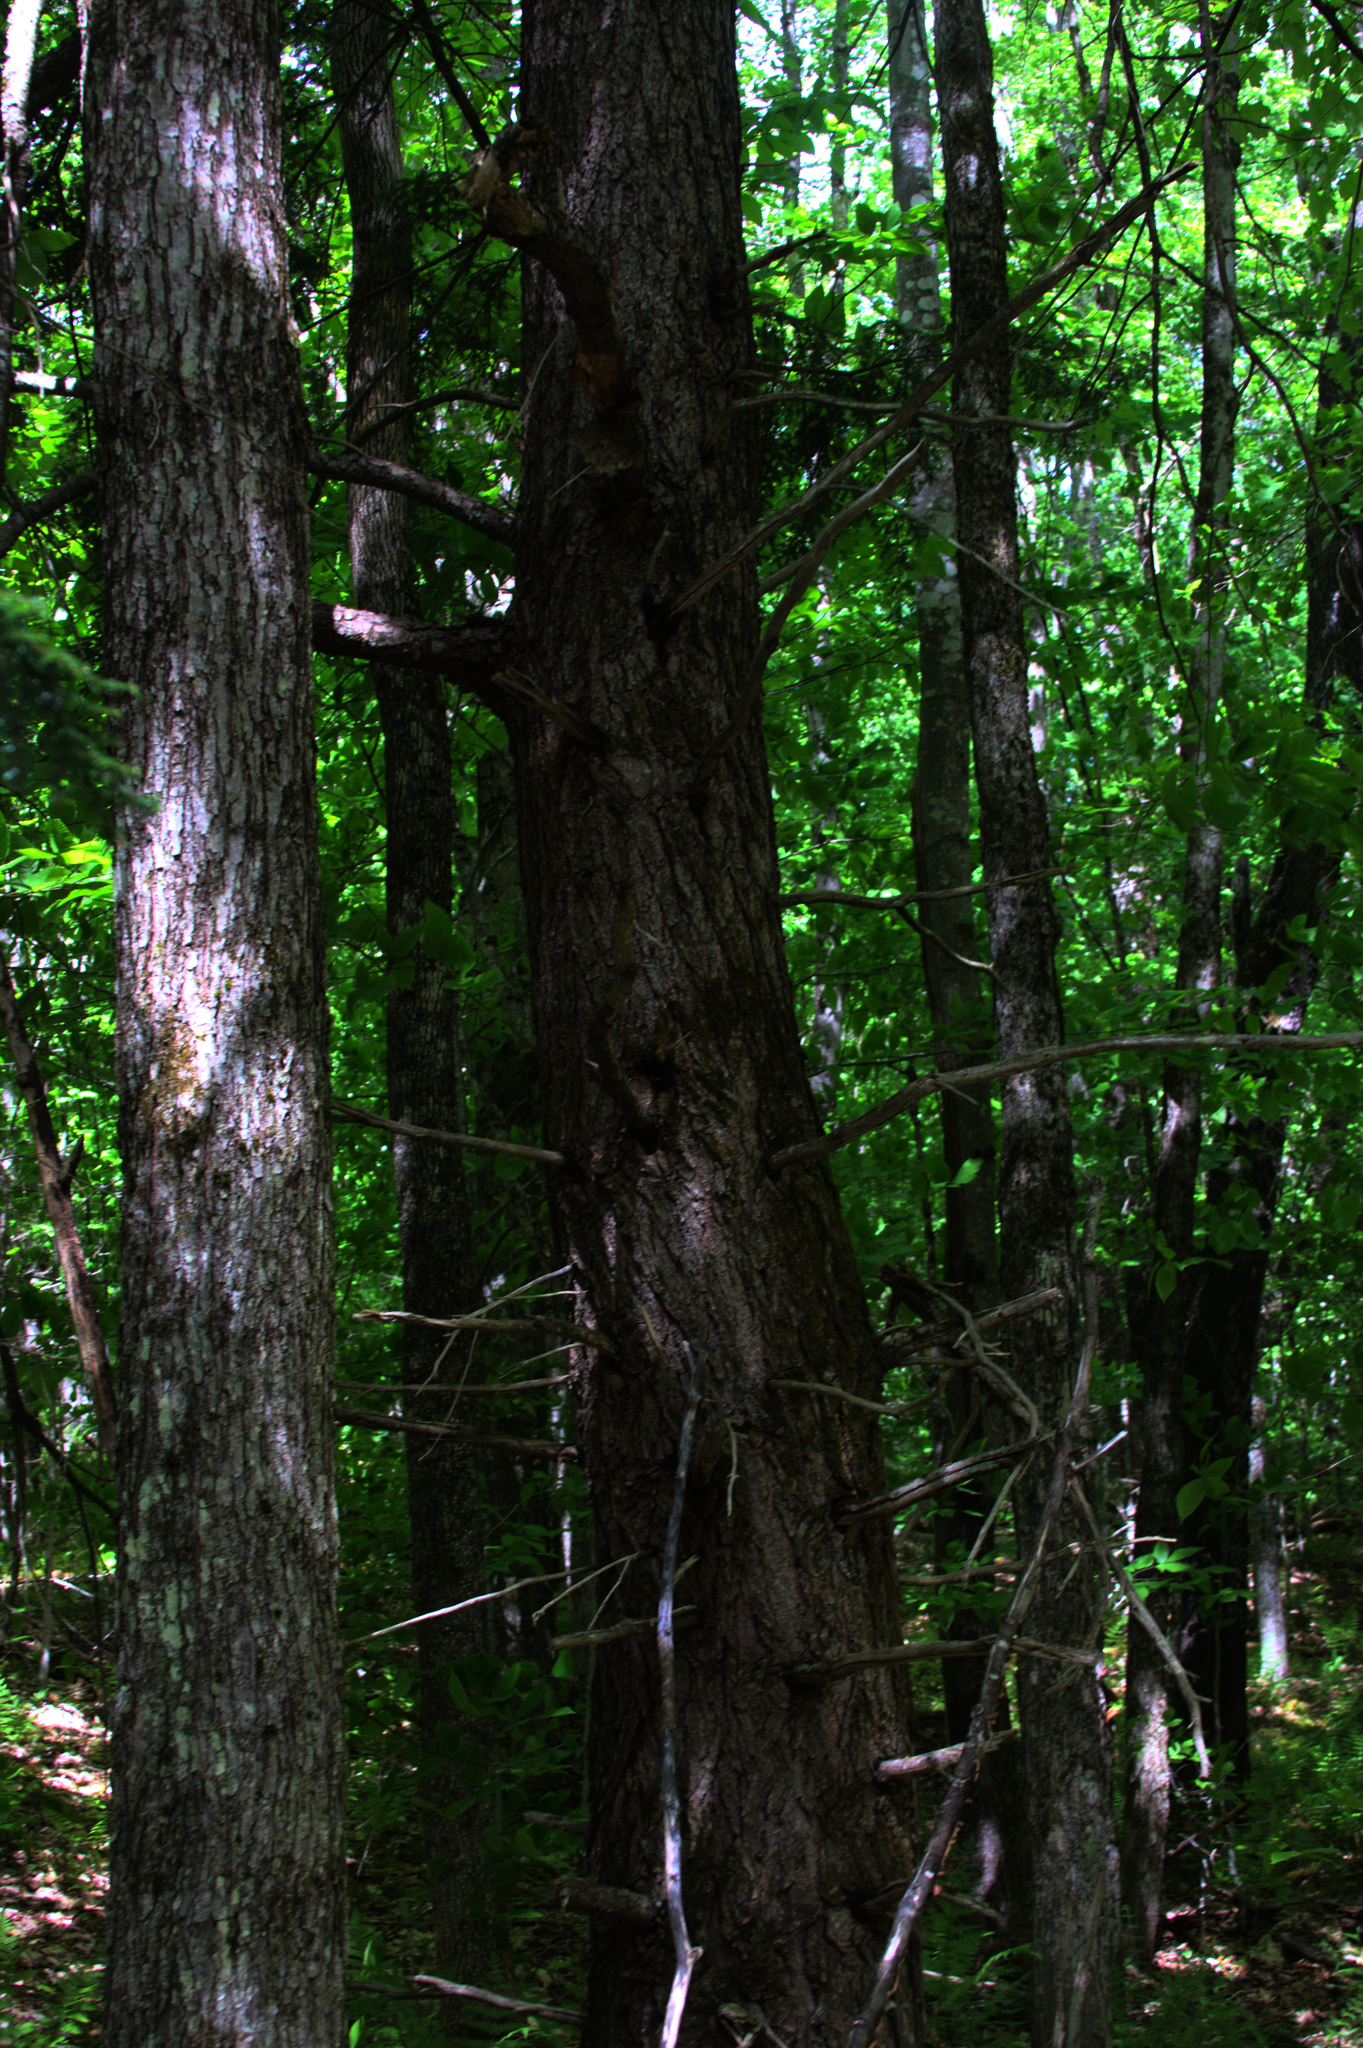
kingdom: Plantae
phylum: Tracheophyta
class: Pinopsida
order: Pinales
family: Pinaceae
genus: Tsuga
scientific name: Tsuga canadensis
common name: Eastern hemlock
